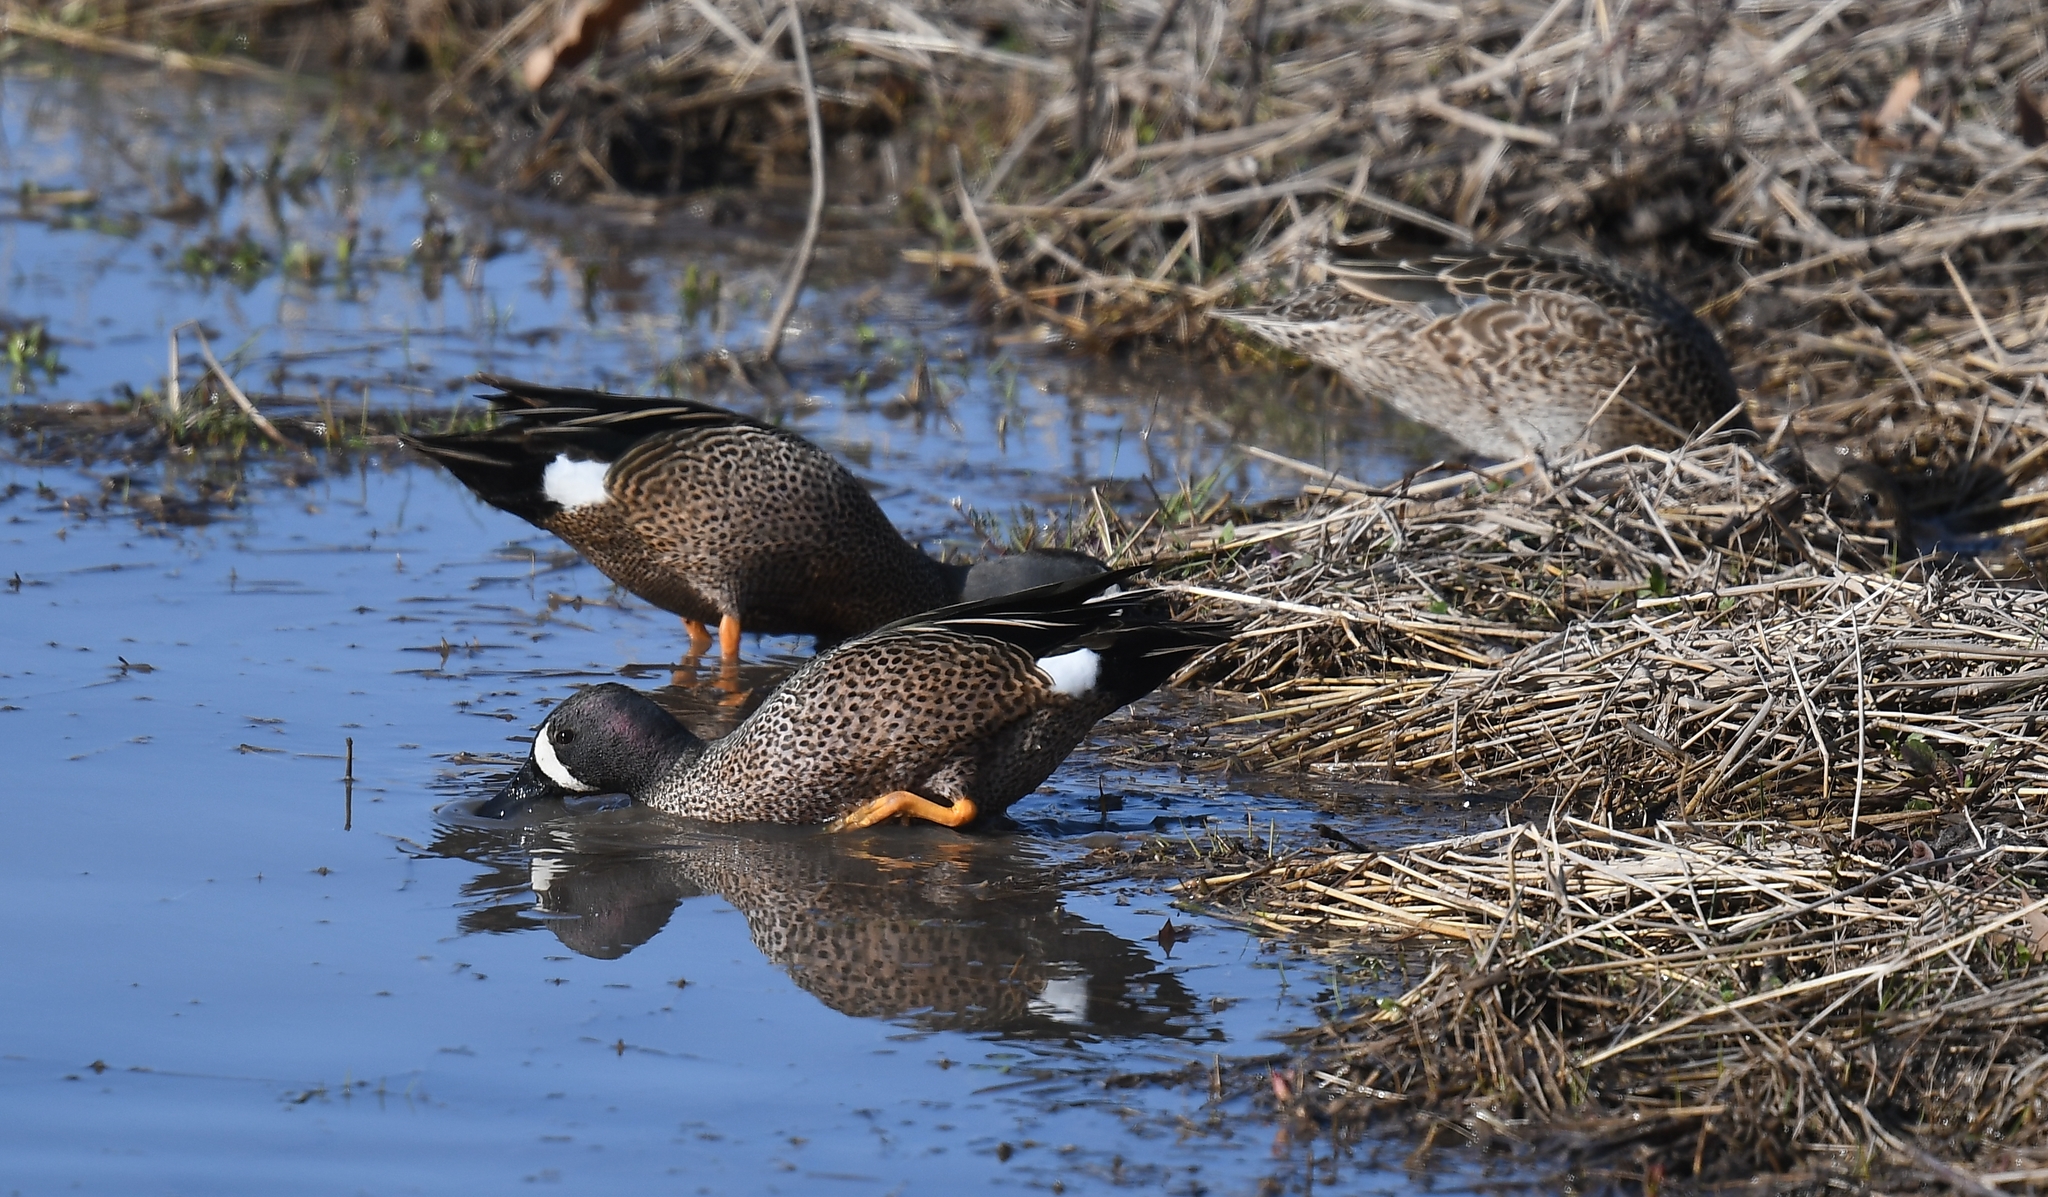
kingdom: Animalia
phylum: Chordata
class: Aves
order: Anseriformes
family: Anatidae
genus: Spatula
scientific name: Spatula discors
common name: Blue-winged teal
